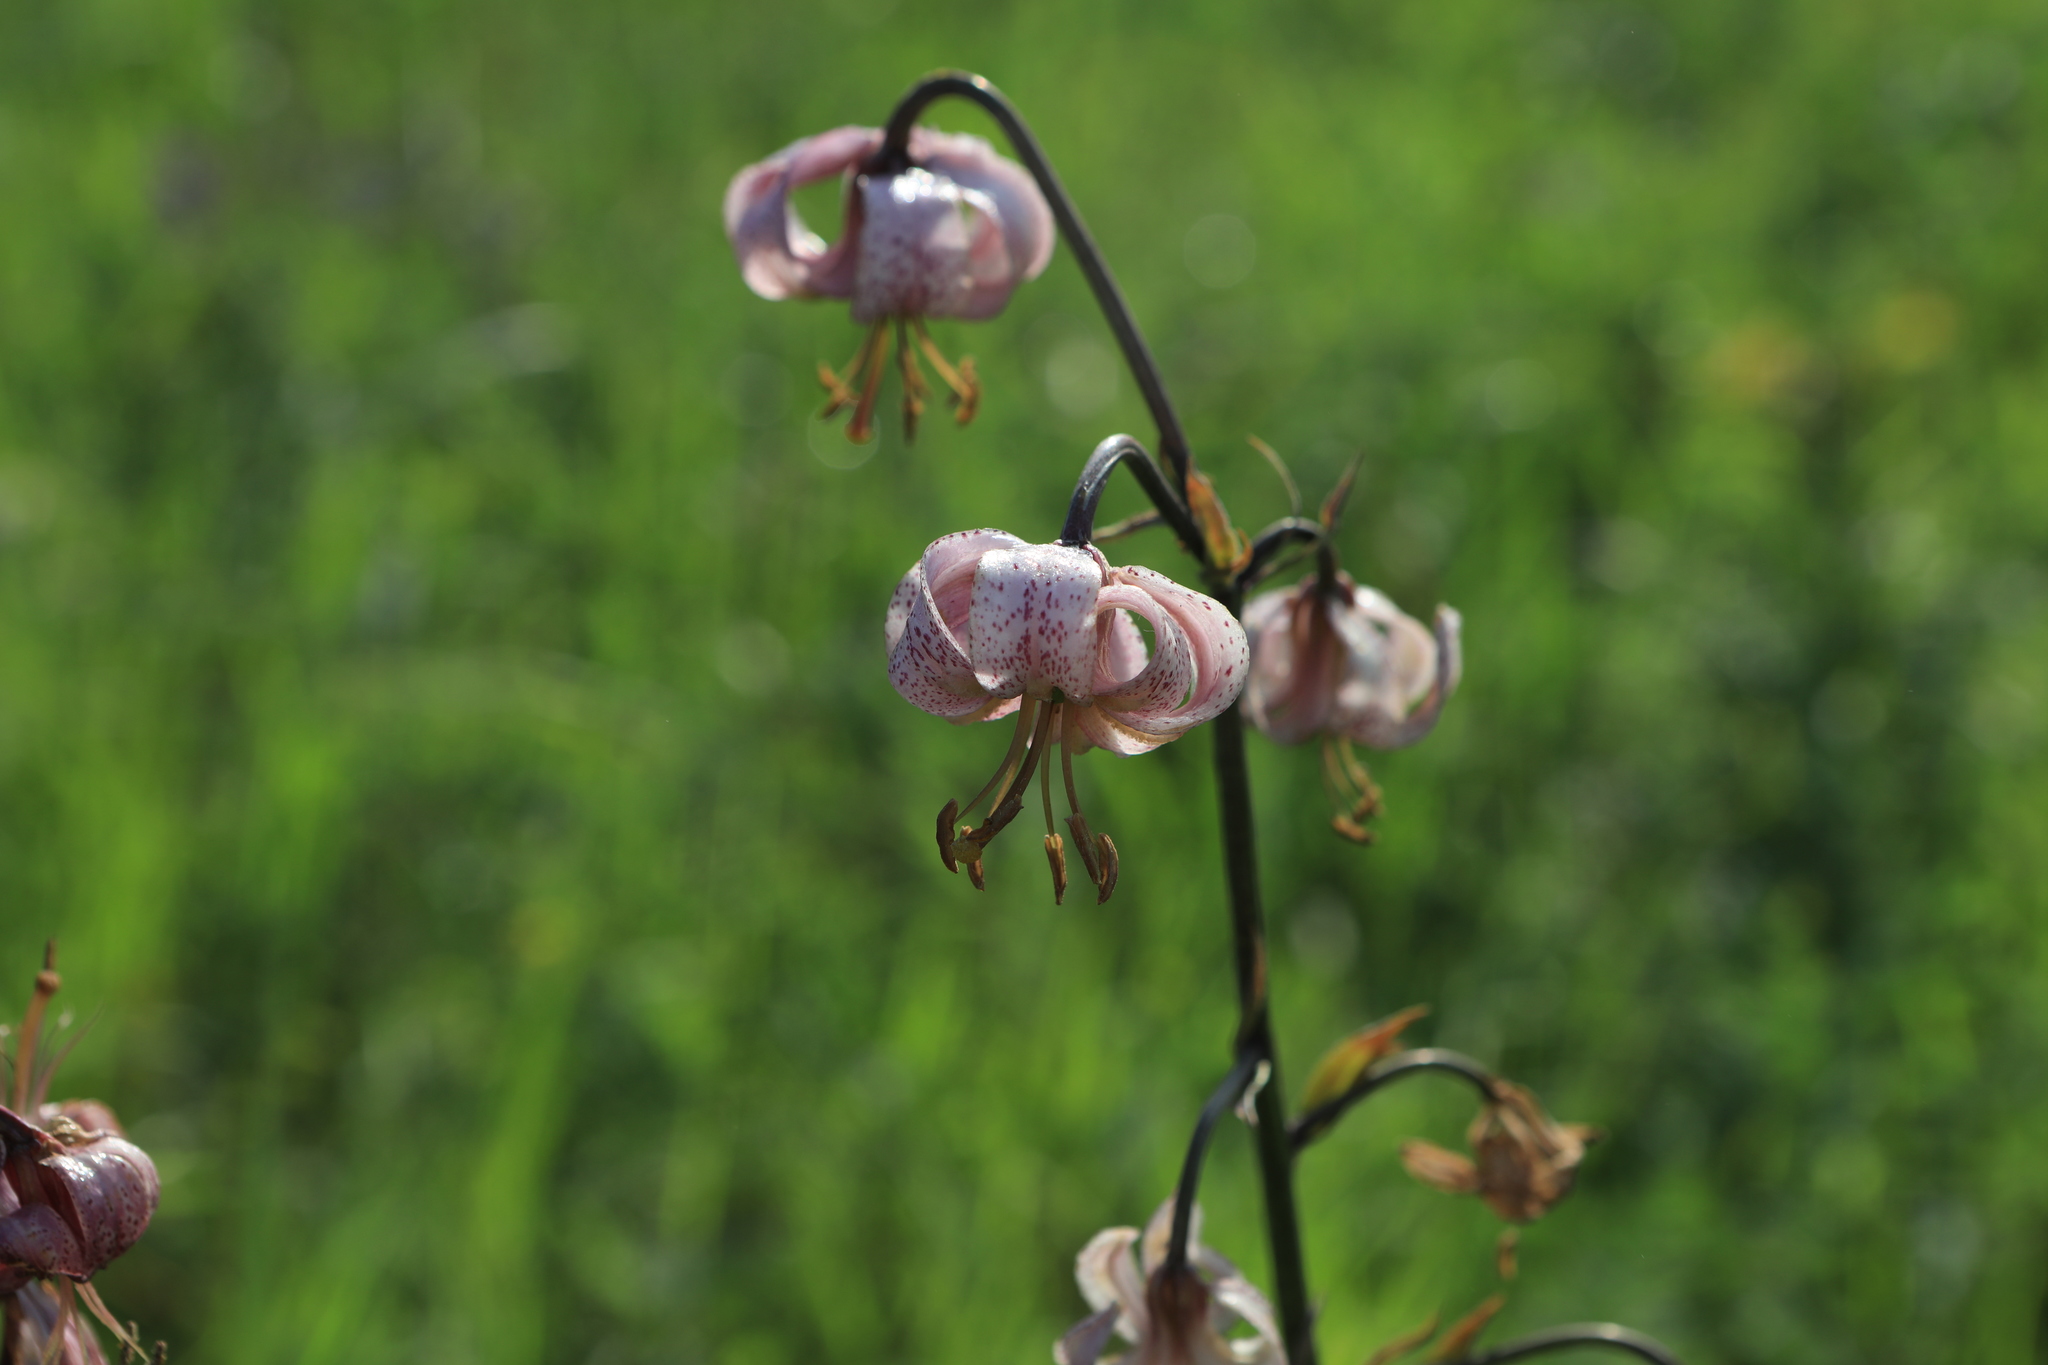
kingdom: Plantae
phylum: Tracheophyta
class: Liliopsida
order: Liliales
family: Liliaceae
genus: Lilium
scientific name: Lilium martagon
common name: Martagon lily
